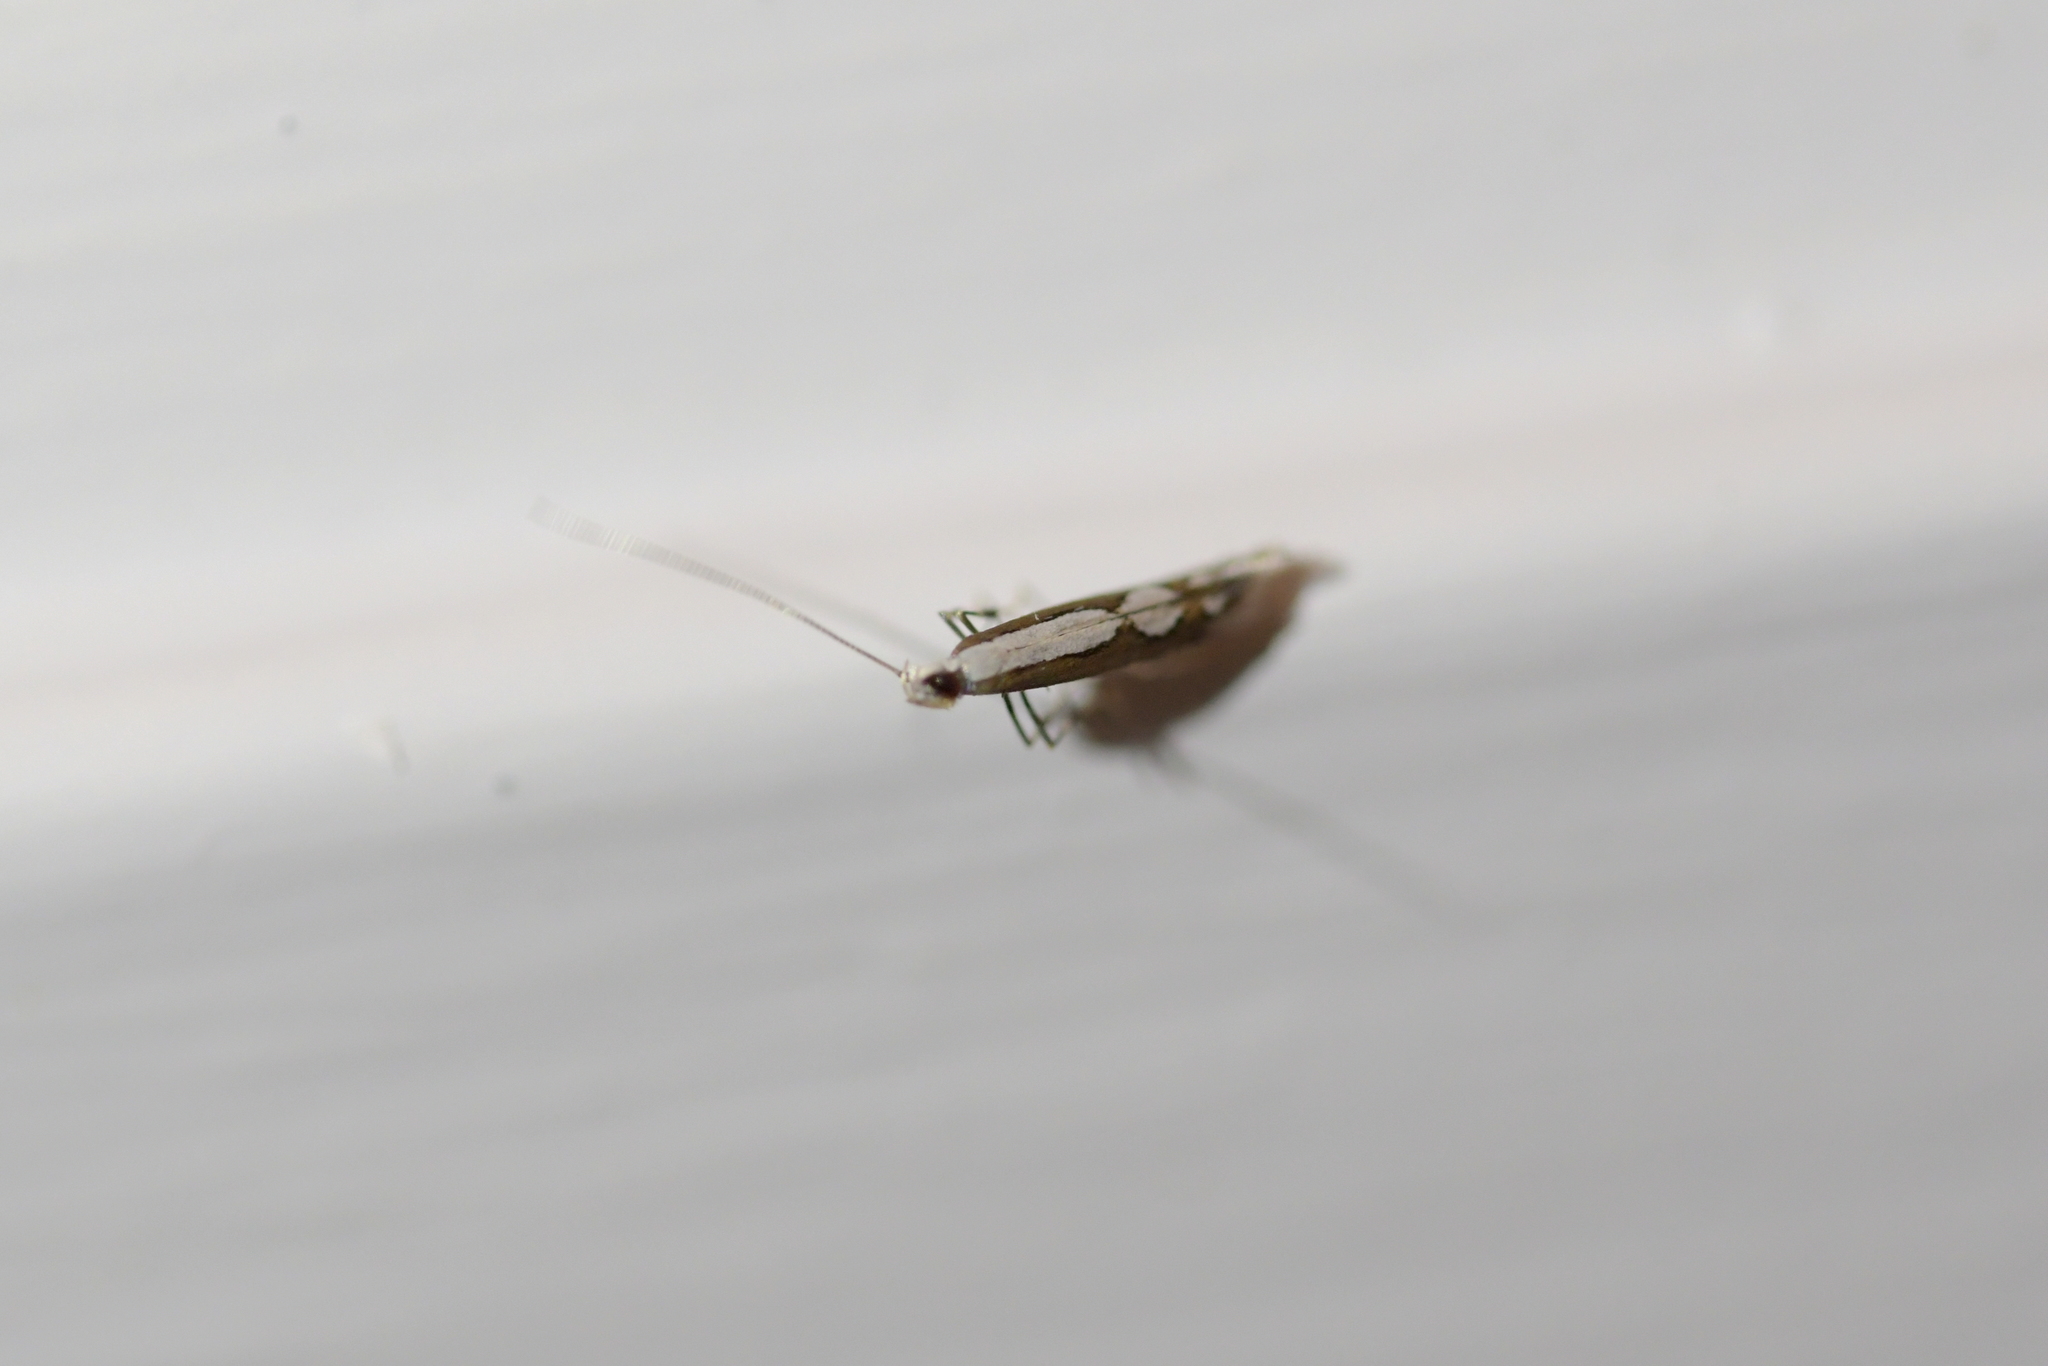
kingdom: Animalia
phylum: Arthropoda
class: Insecta
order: Lepidoptera
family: Gracillariidae
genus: Dialectica
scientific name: Dialectica scalariella
